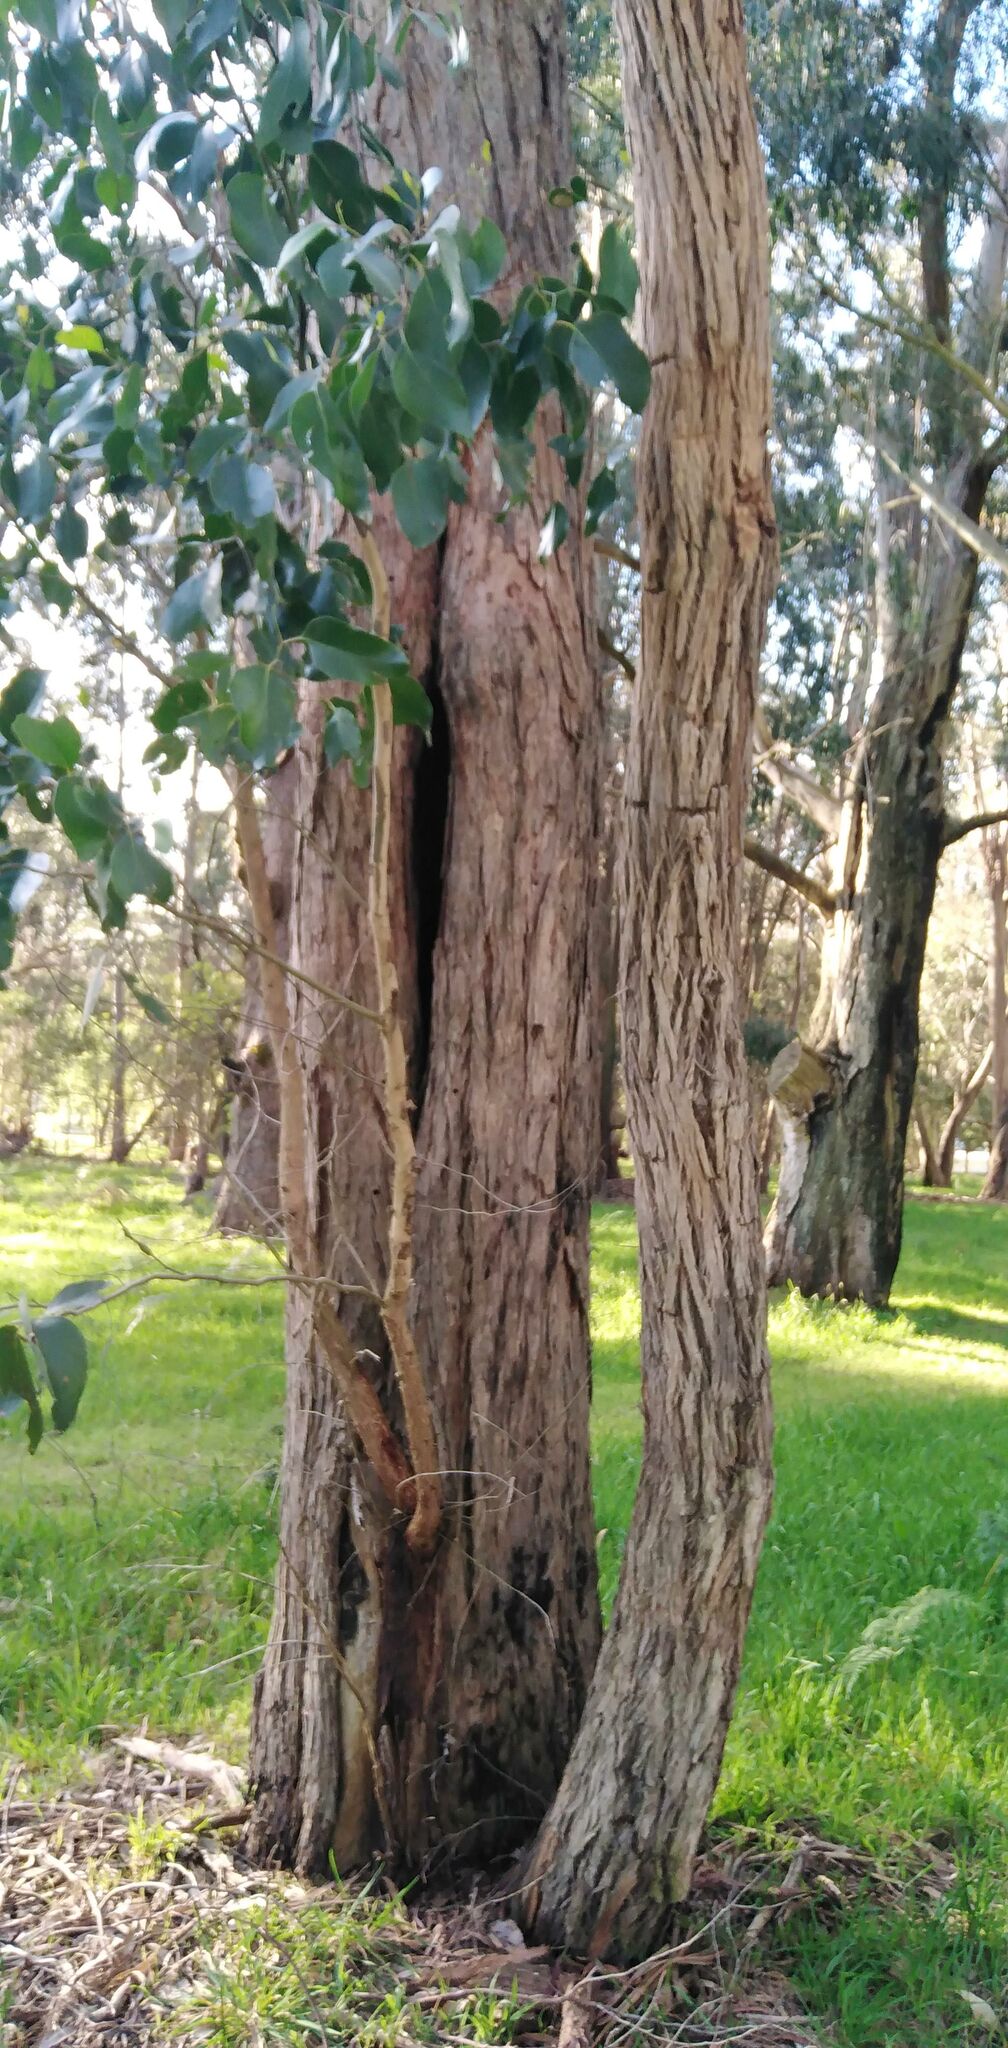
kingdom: Plantae
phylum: Tracheophyta
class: Magnoliopsida
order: Myrtales
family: Myrtaceae
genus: Eucalyptus
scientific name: Eucalyptus baxteri
